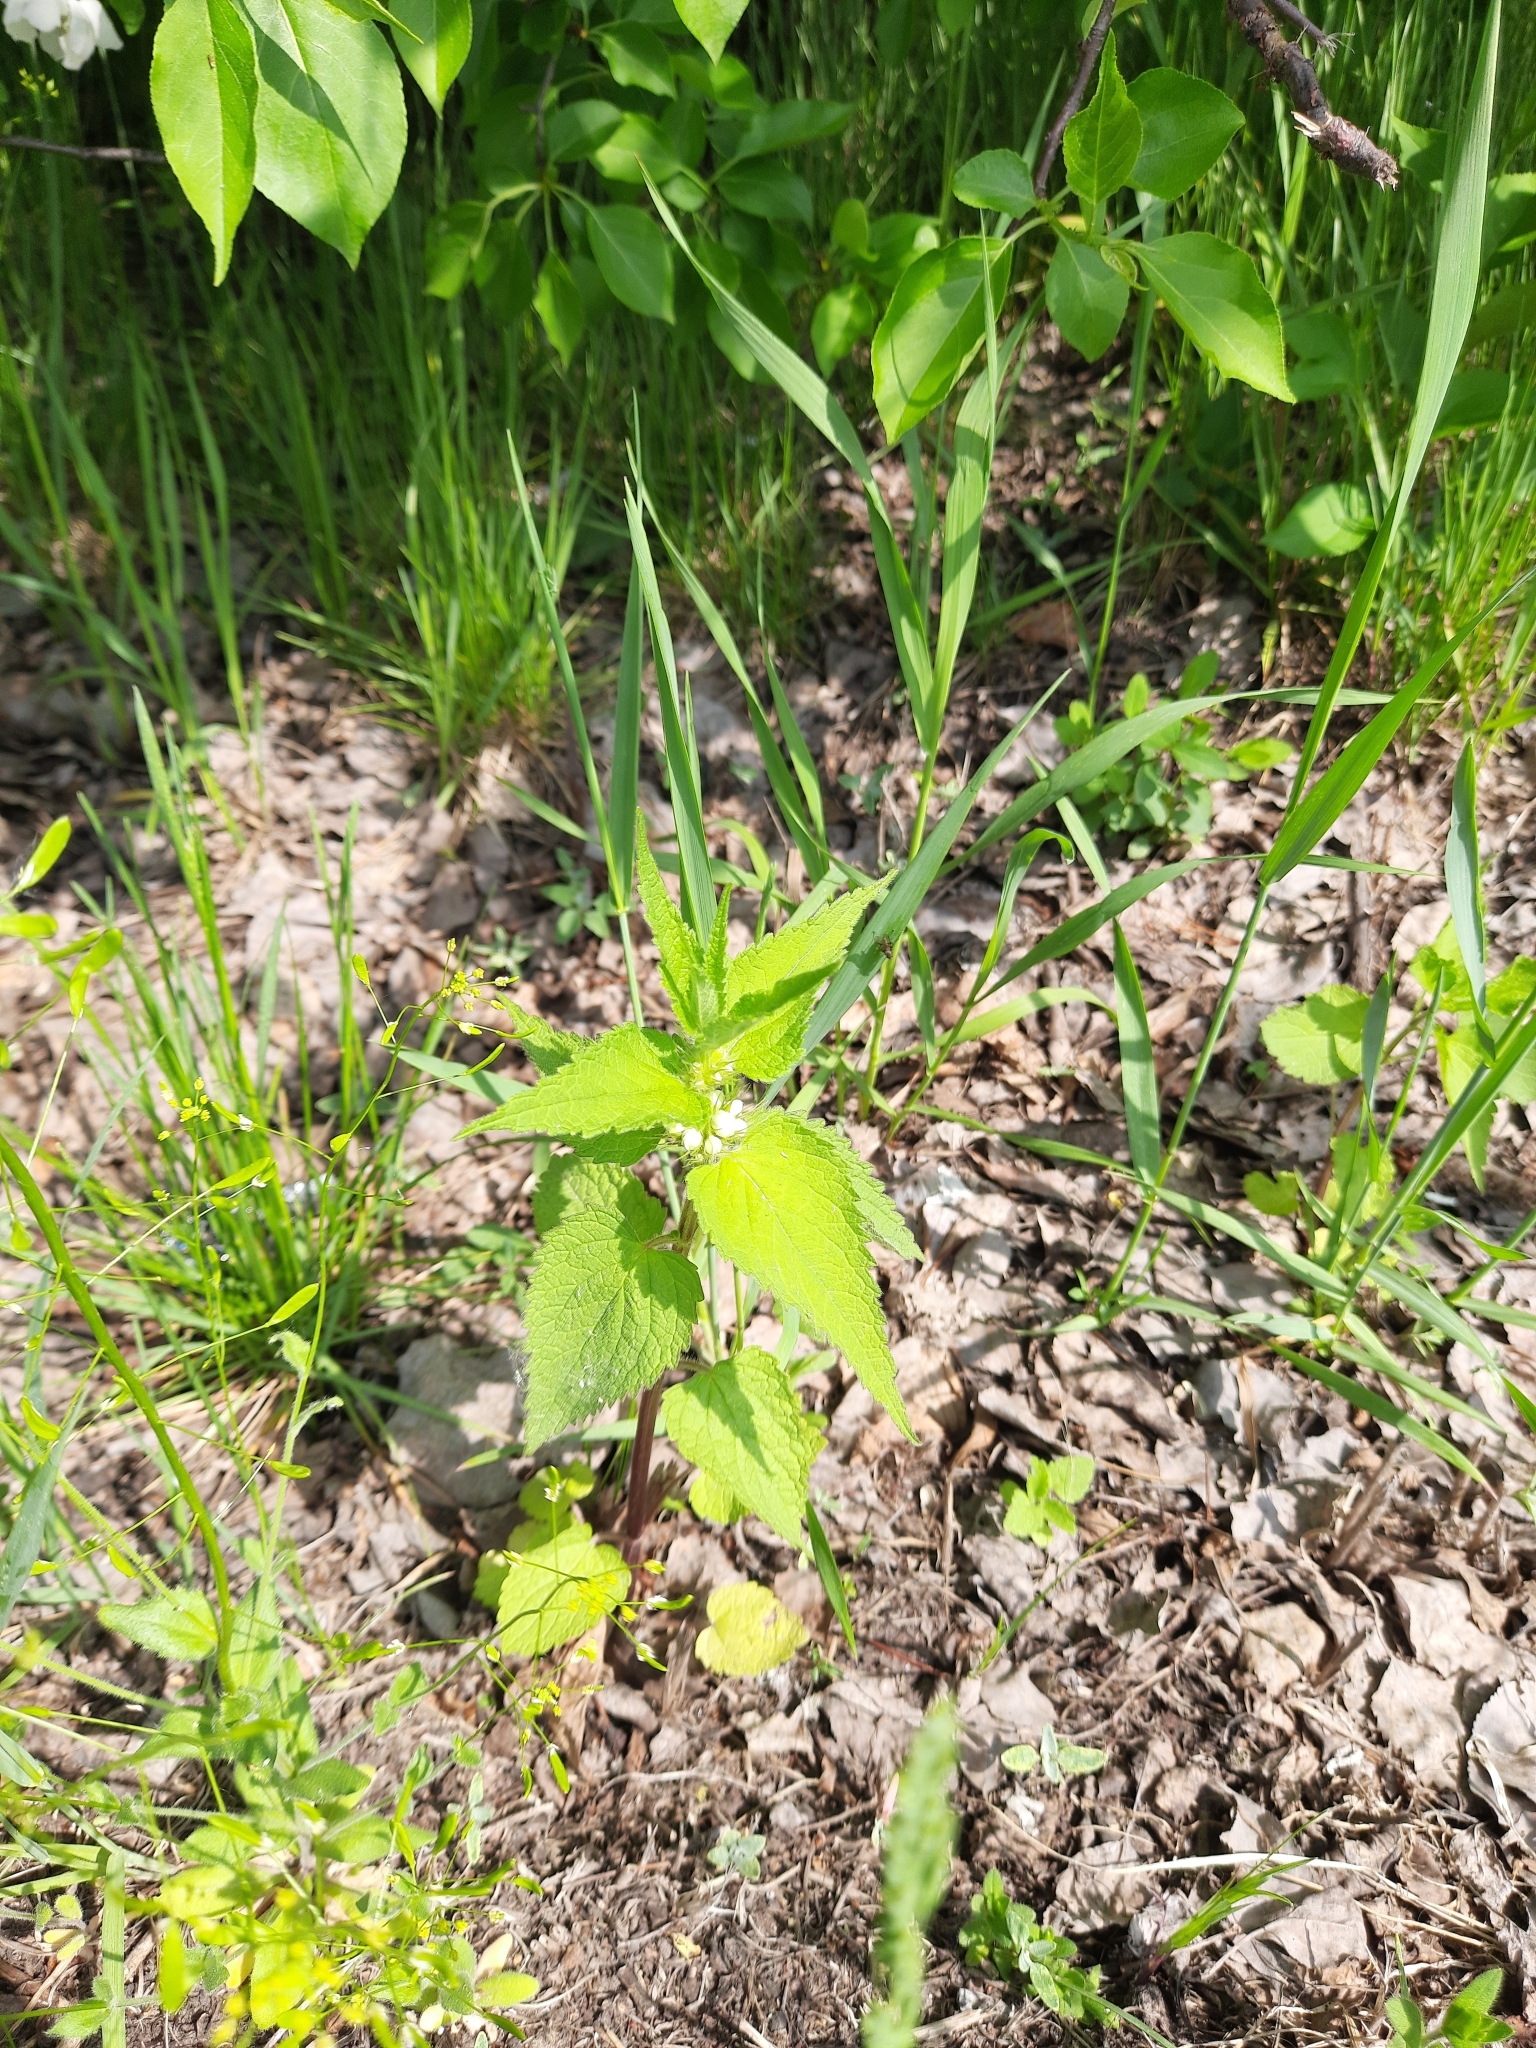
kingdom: Plantae
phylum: Tracheophyta
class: Magnoliopsida
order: Lamiales
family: Lamiaceae
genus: Lamium
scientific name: Lamium album
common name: White dead-nettle
